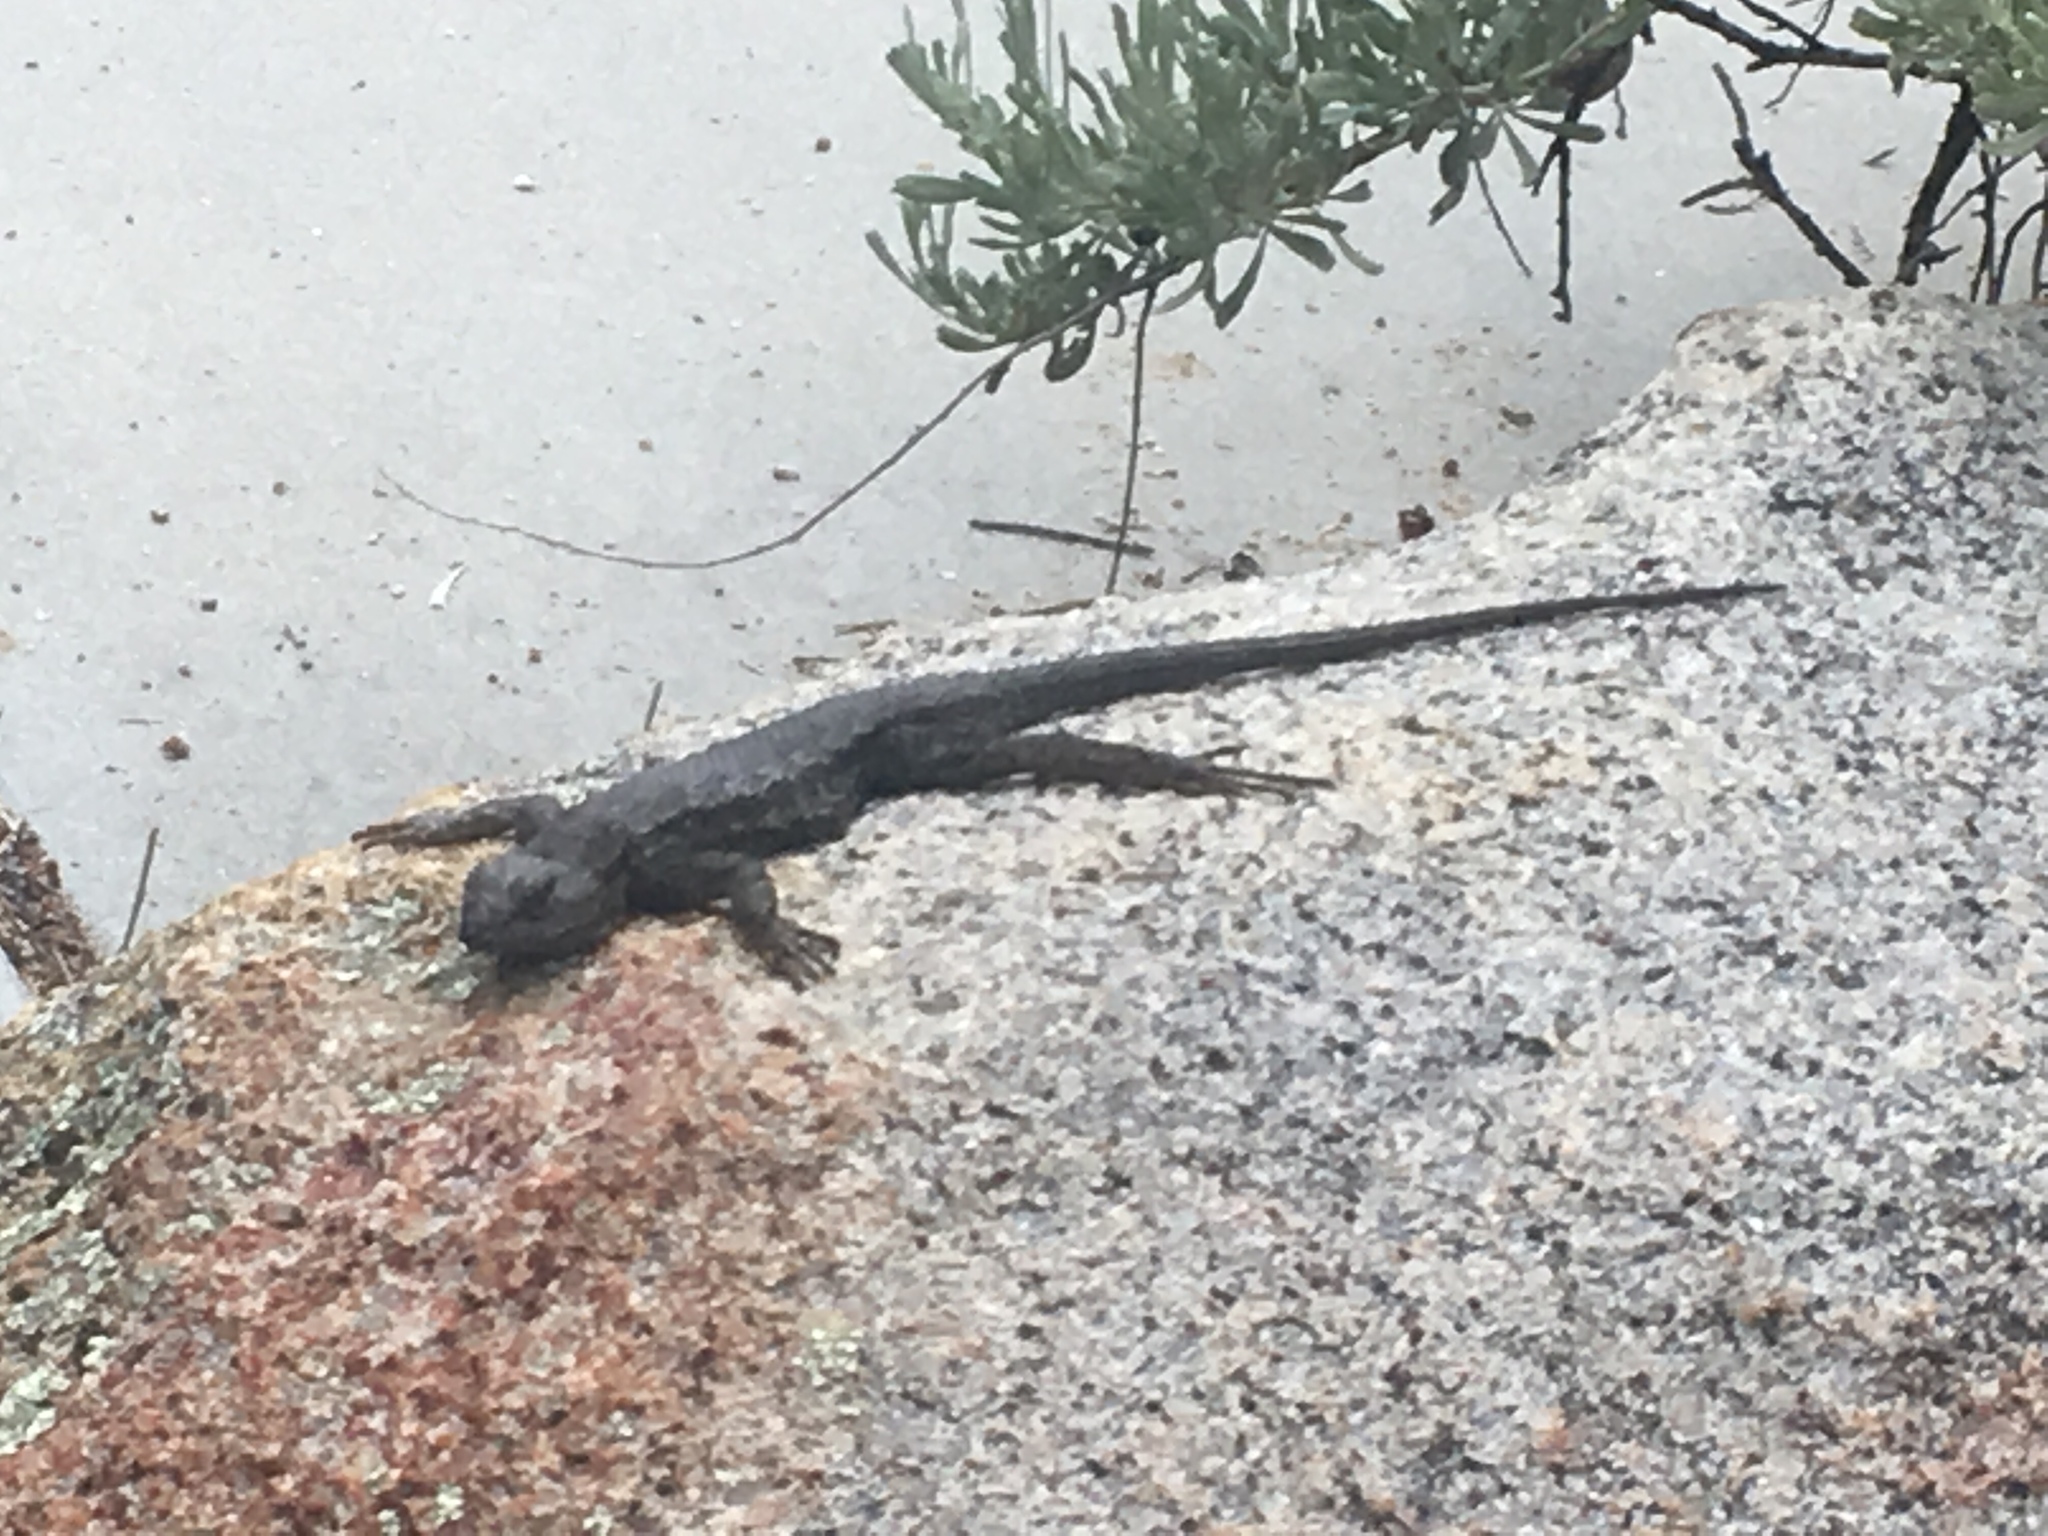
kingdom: Animalia
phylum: Chordata
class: Squamata
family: Phrynosomatidae
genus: Sceloporus
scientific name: Sceloporus occidentalis
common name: Western fence lizard
